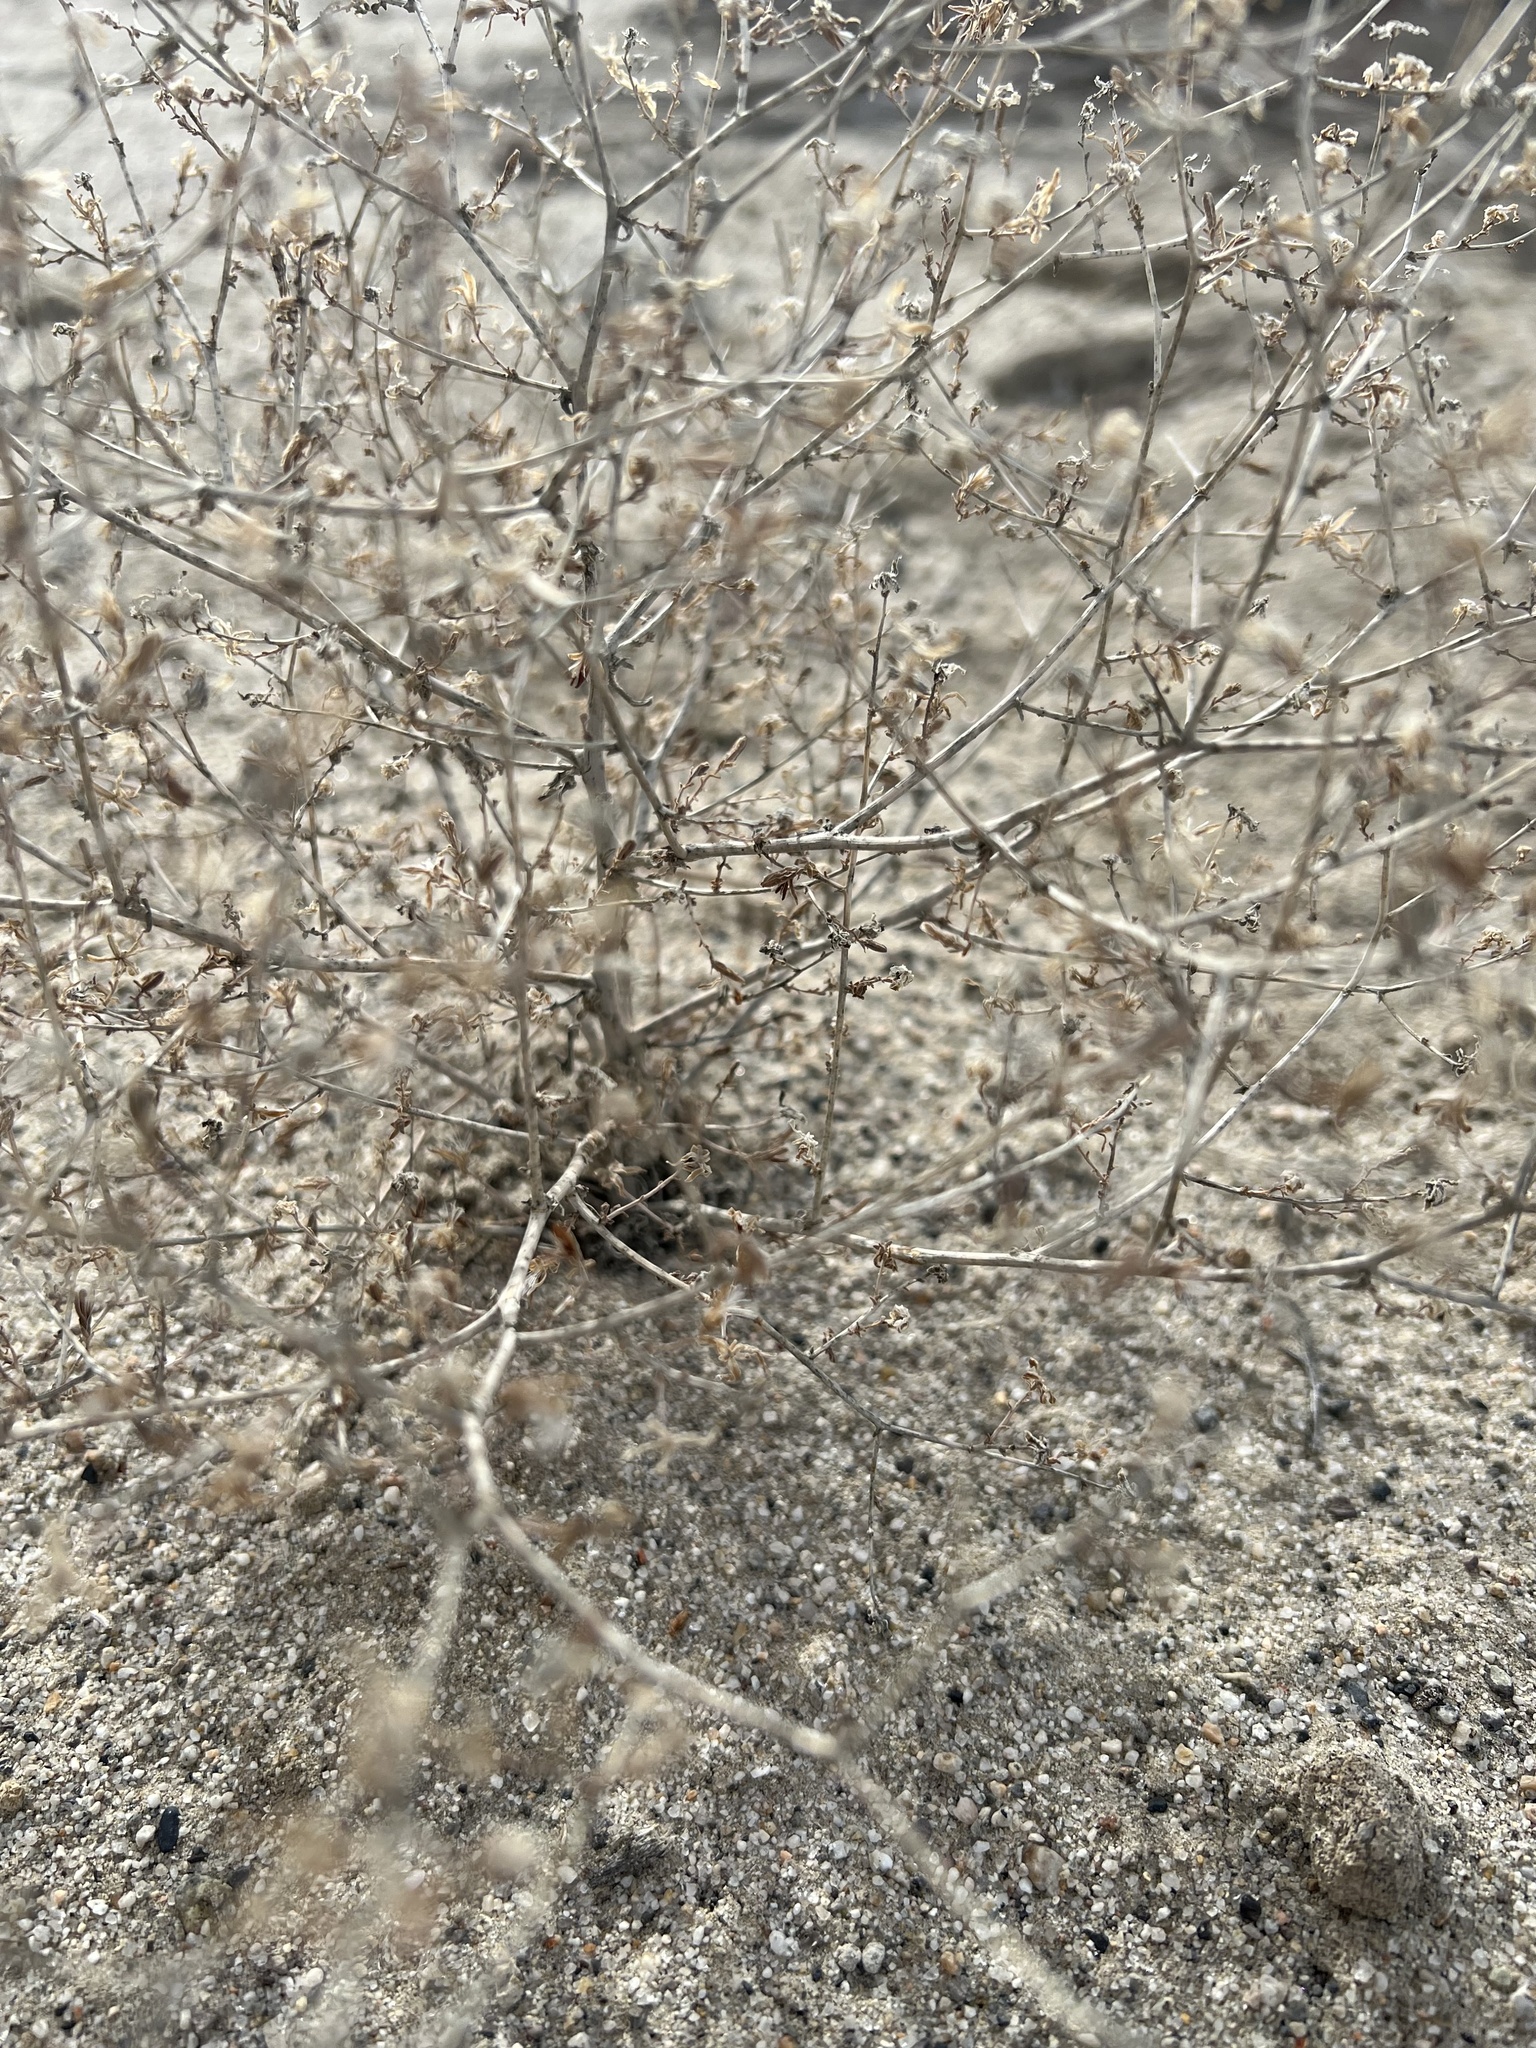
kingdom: Plantae
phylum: Tracheophyta
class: Magnoliopsida
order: Asterales
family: Asteraceae
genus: Stephanomeria
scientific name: Stephanomeria exigua
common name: Small wirelettuce
